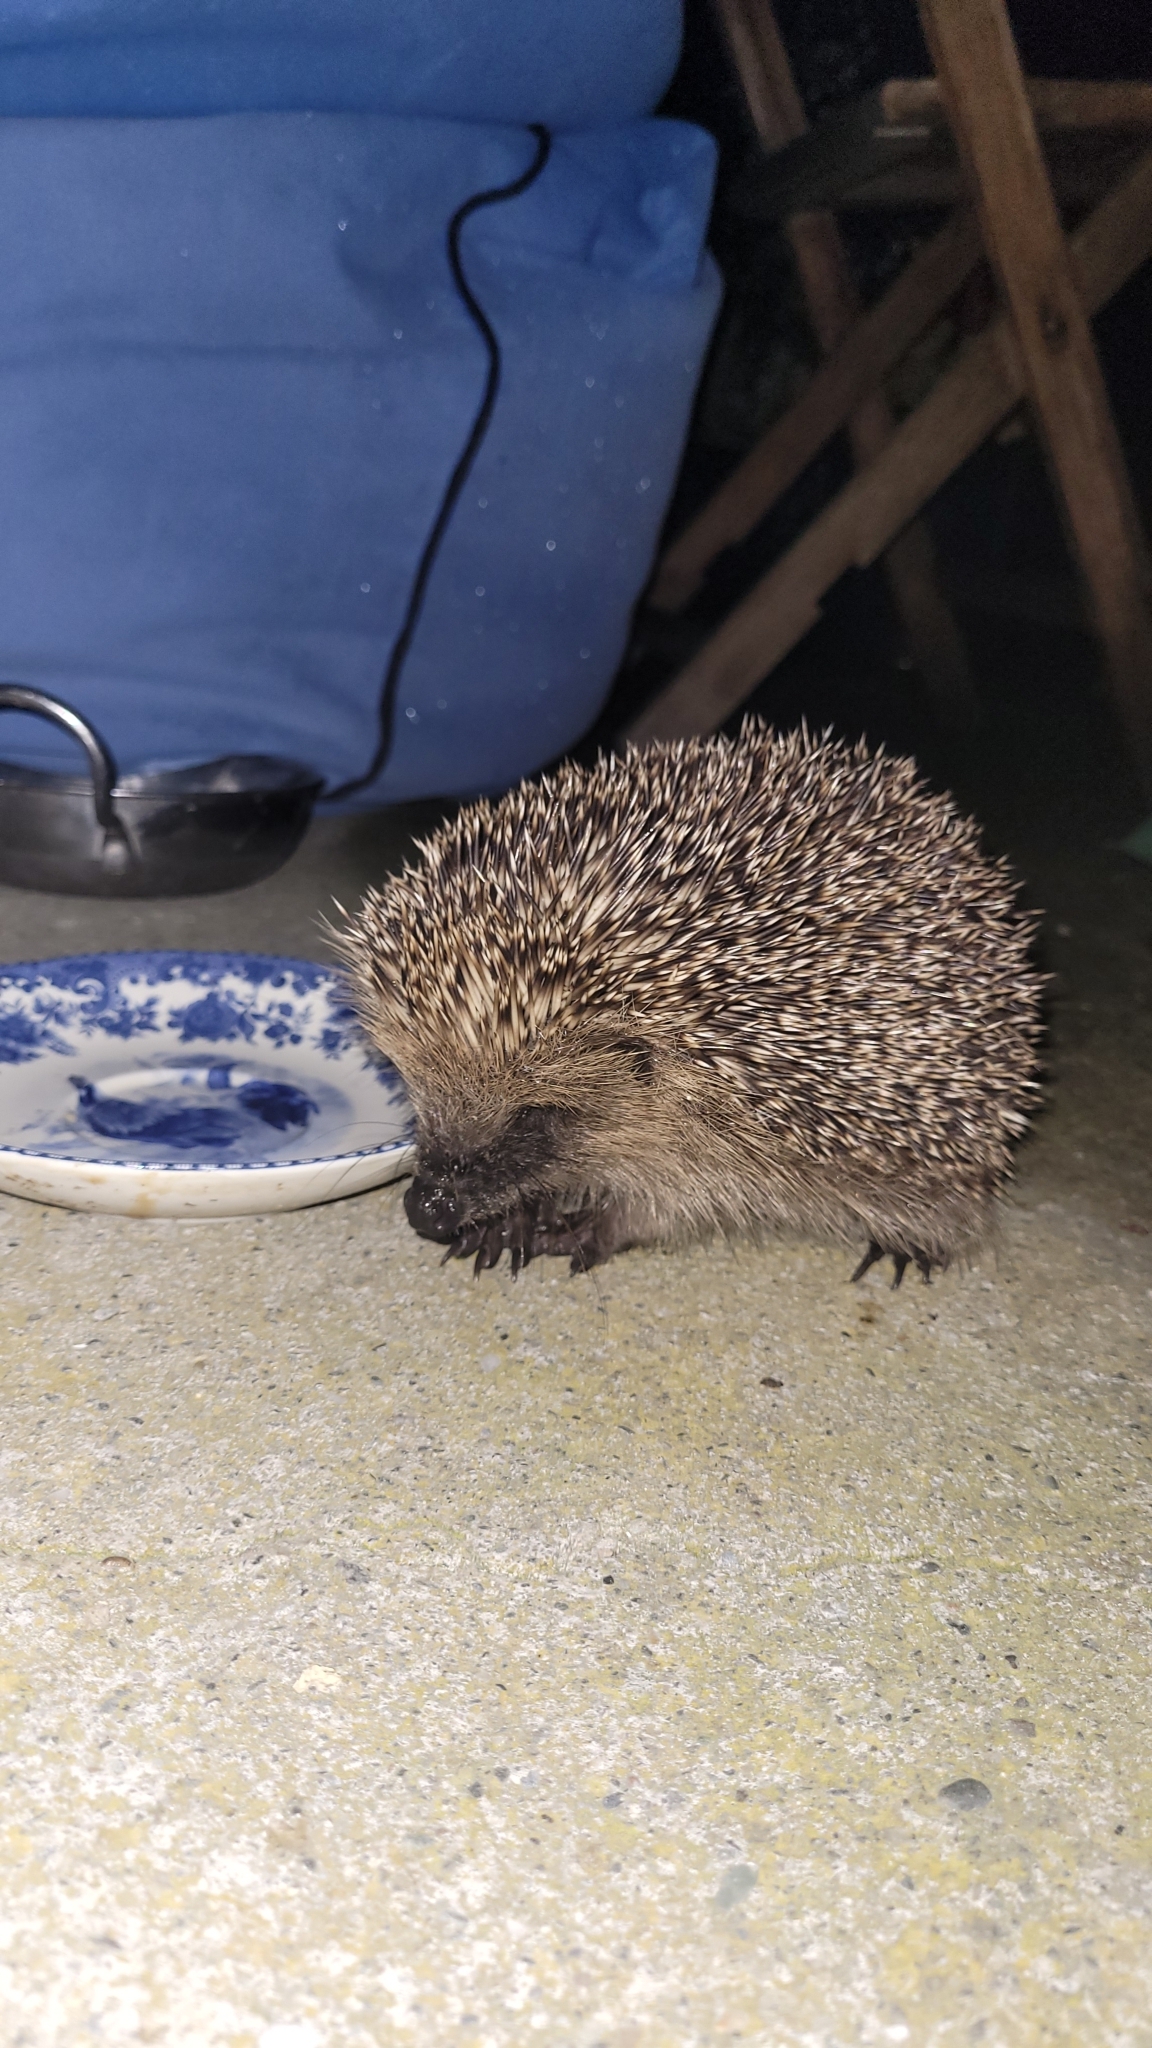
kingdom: Animalia
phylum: Chordata
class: Mammalia
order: Erinaceomorpha
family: Erinaceidae
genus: Erinaceus
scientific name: Erinaceus europaeus
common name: West european hedgehog
